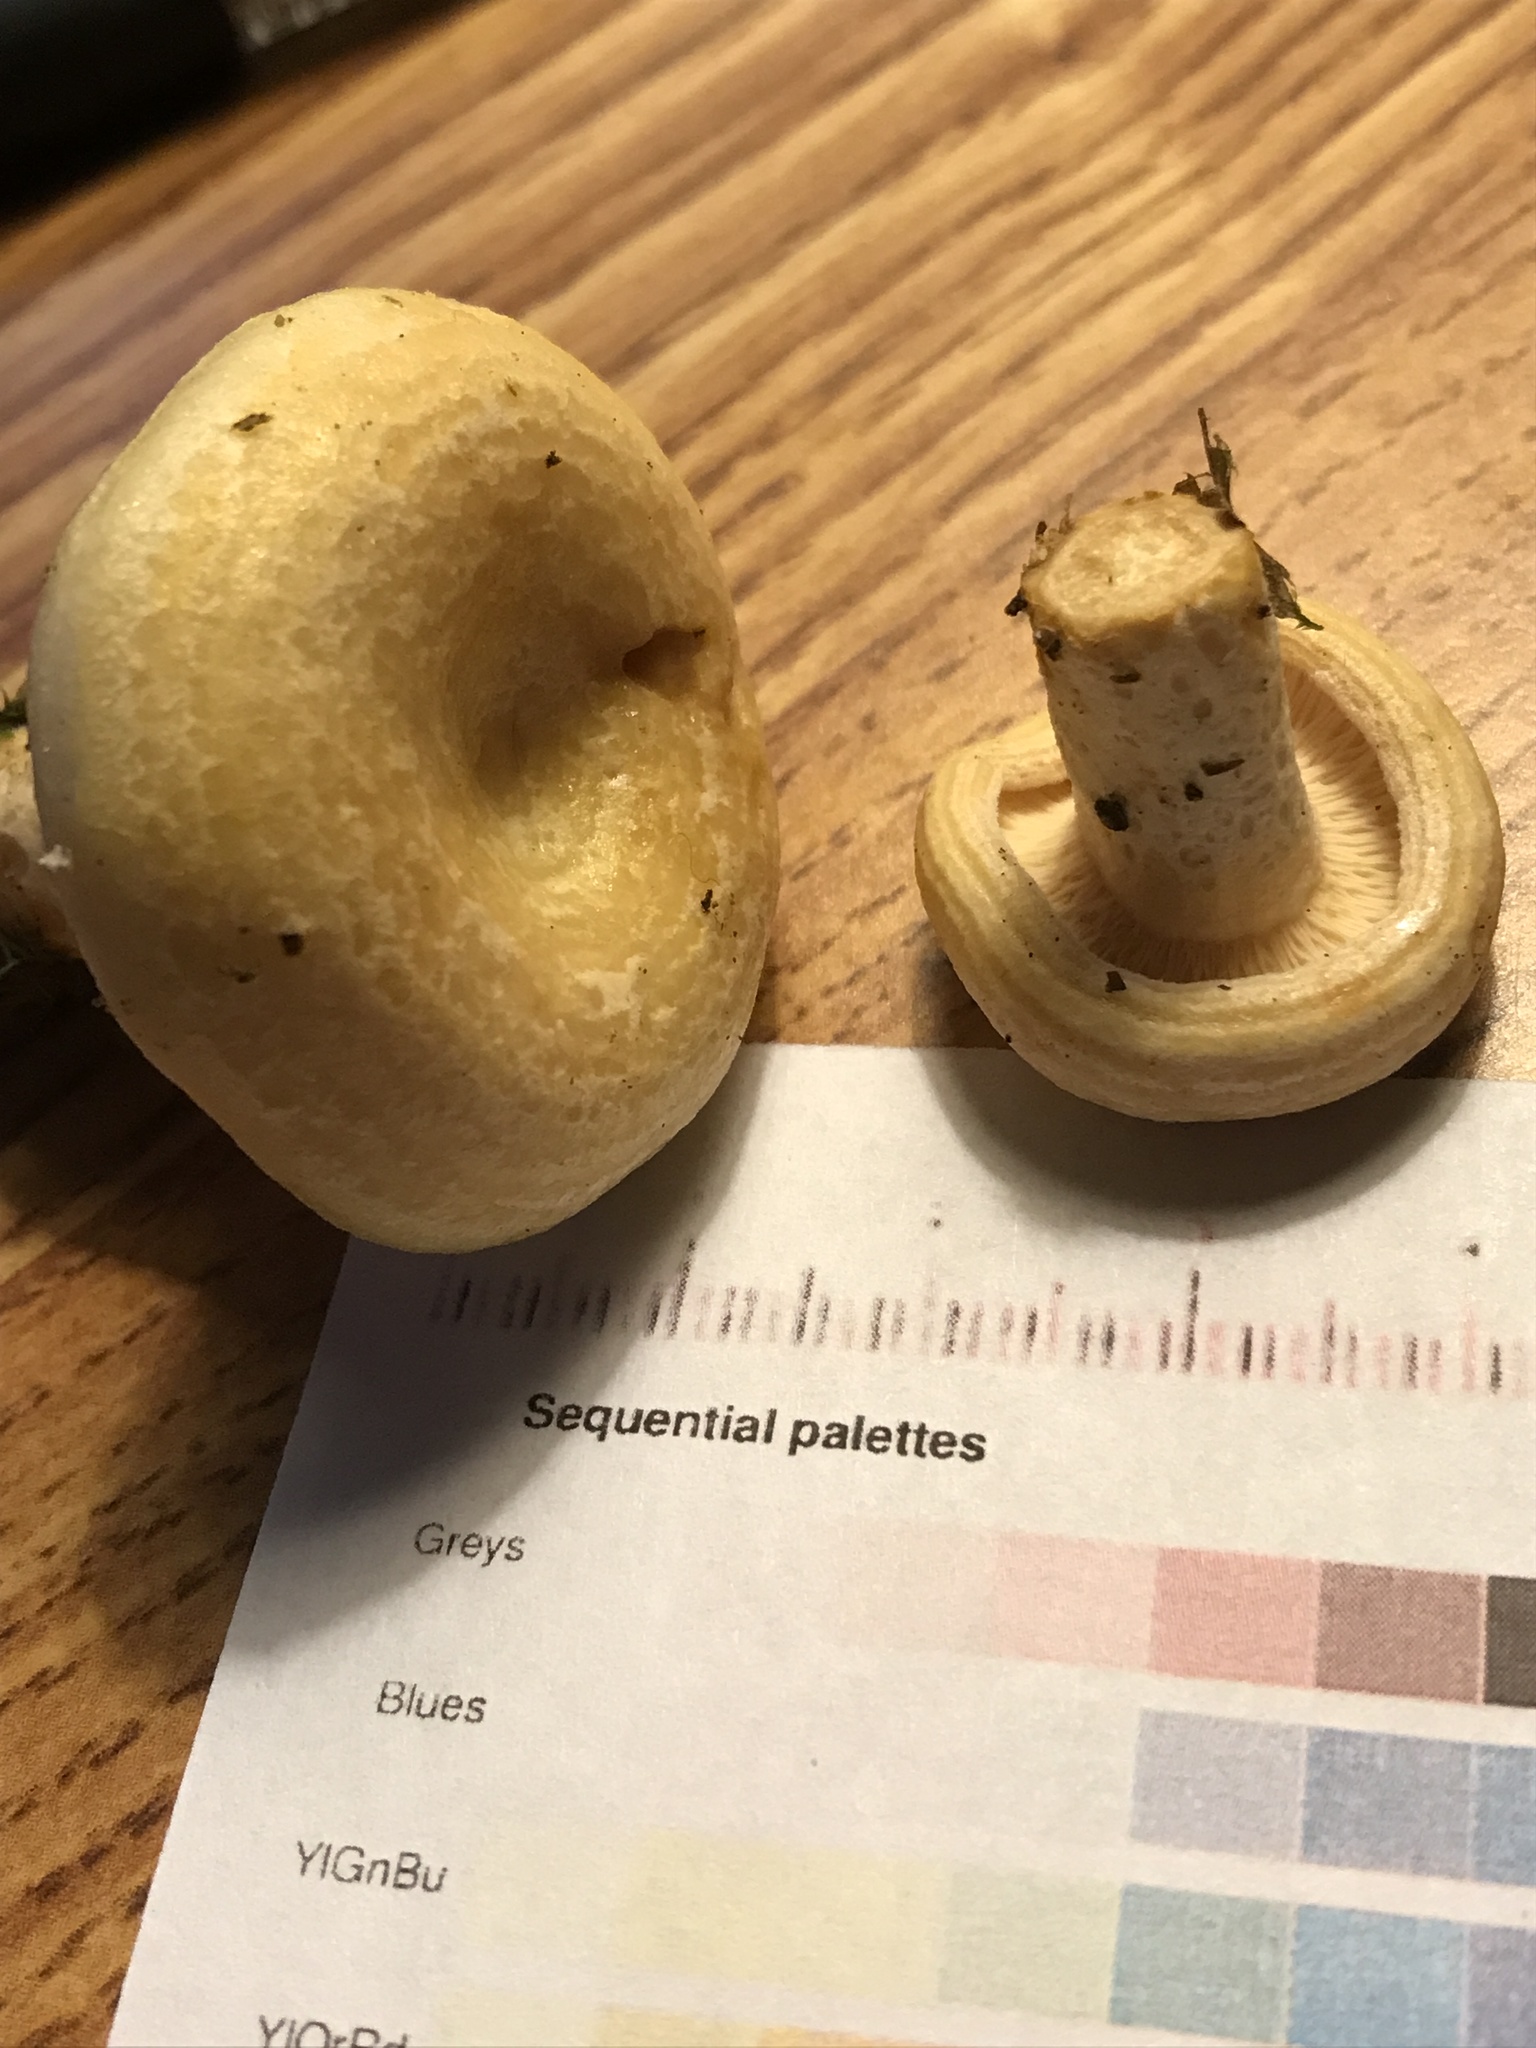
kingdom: Fungi
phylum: Basidiomycota
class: Agaricomycetes
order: Russulales
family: Russulaceae
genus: Lactarius
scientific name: Lactarius yazooensis
